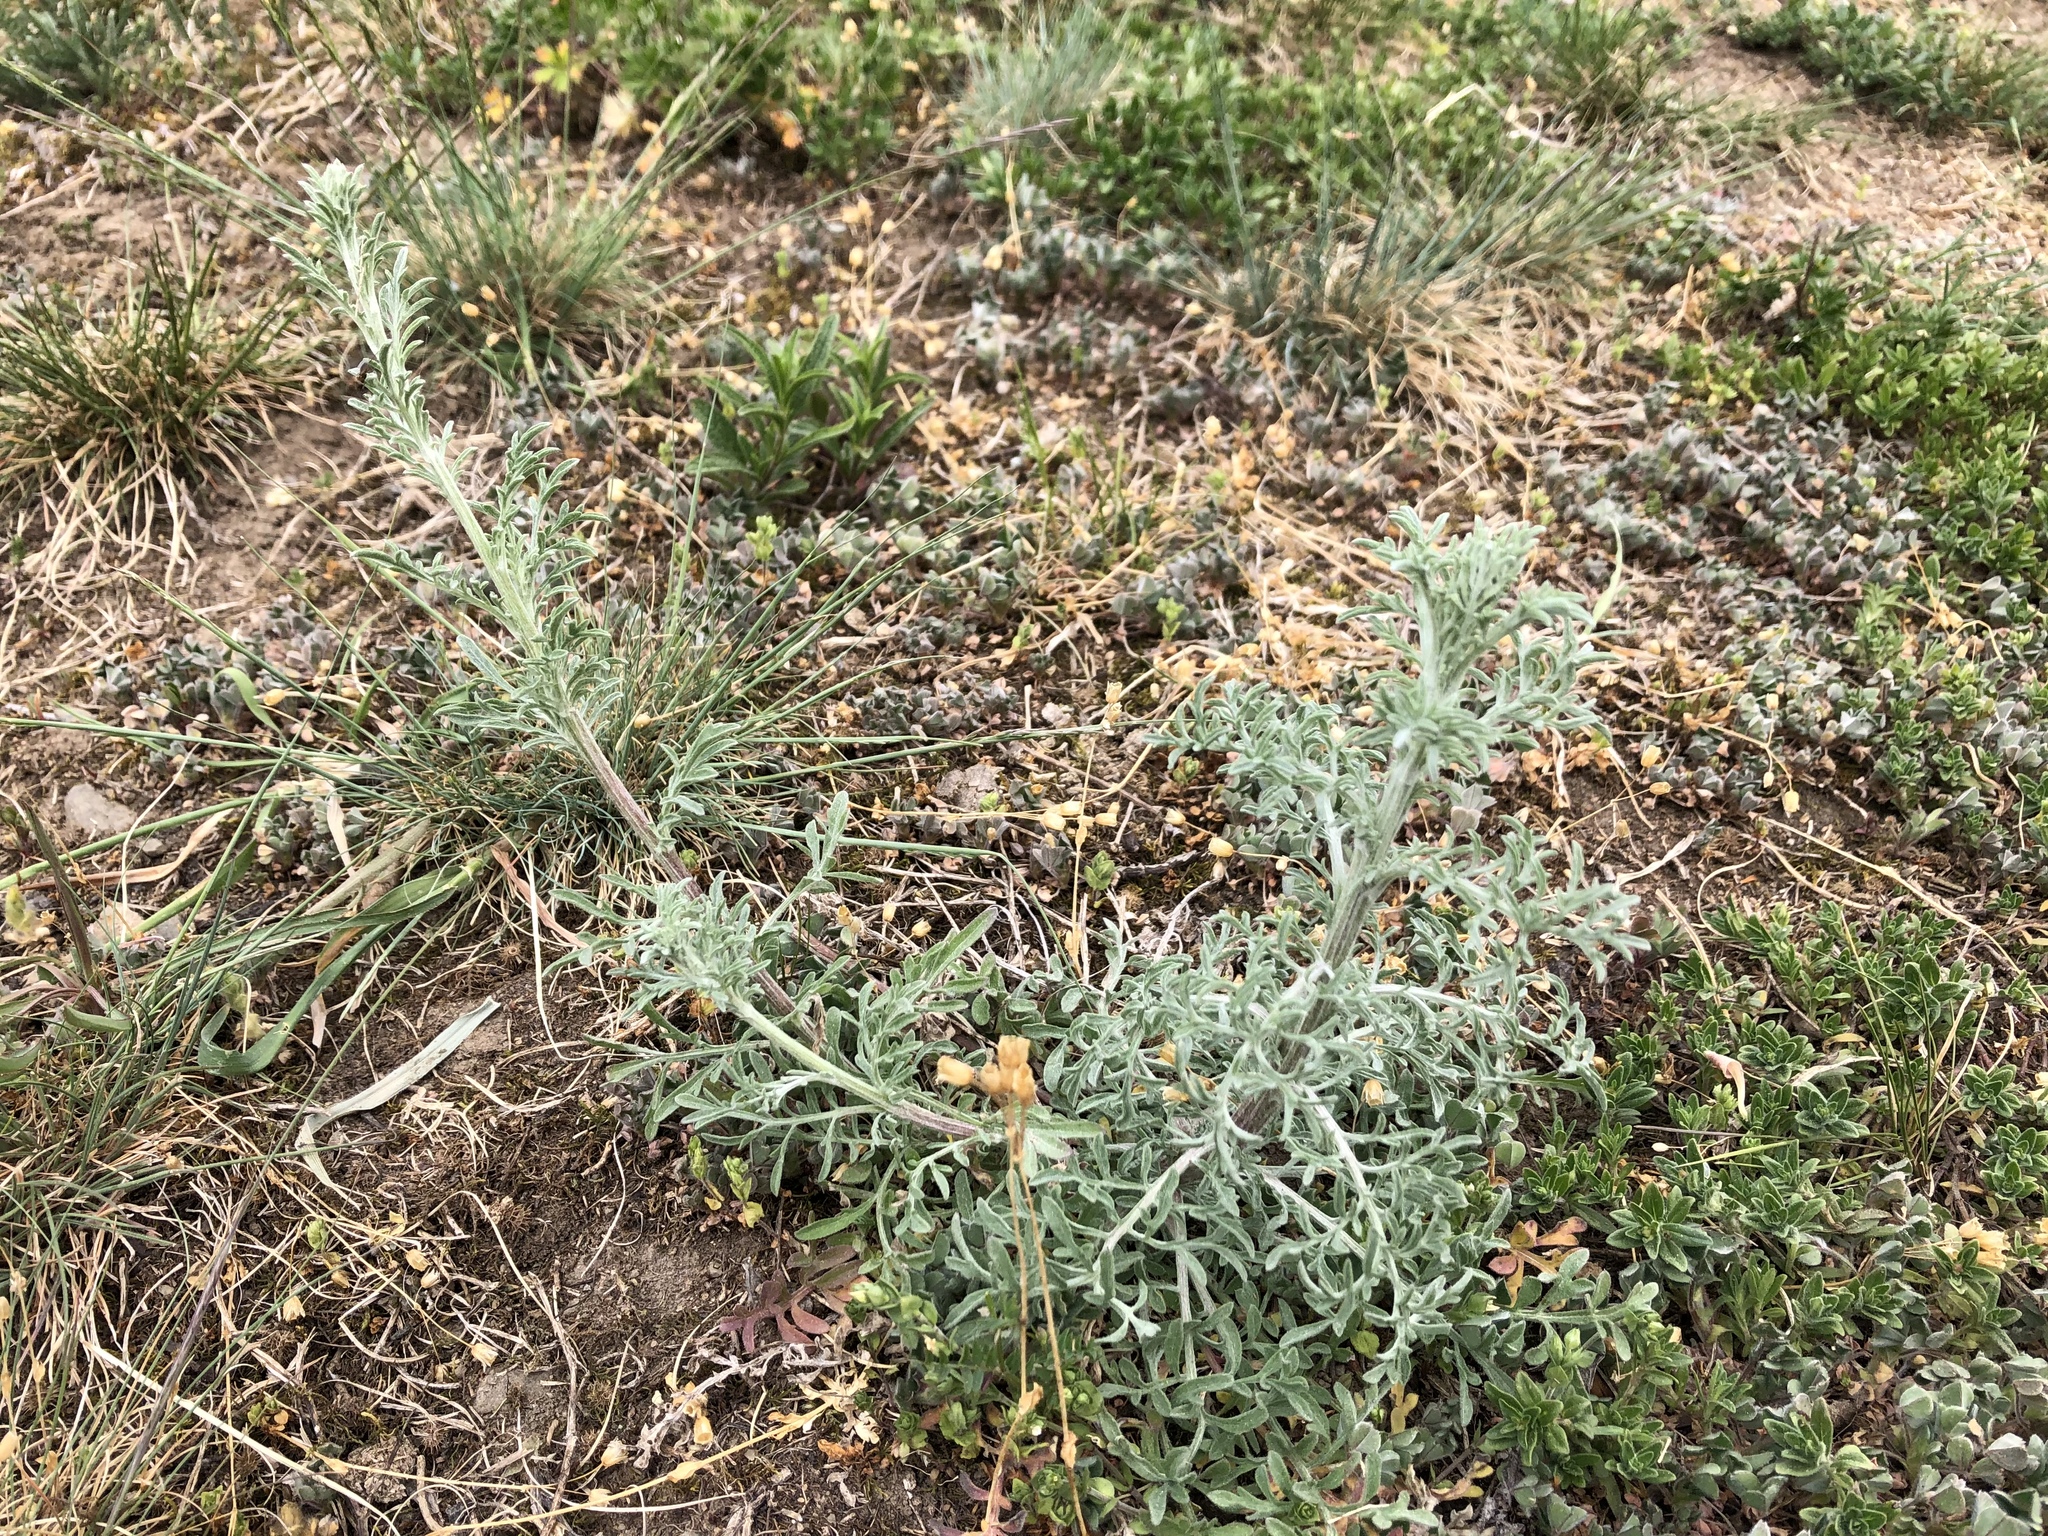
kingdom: Plantae
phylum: Tracheophyta
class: Magnoliopsida
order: Asterales
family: Asteraceae
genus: Centaurea
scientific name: Centaurea stoebe
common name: Spotted knapweed
